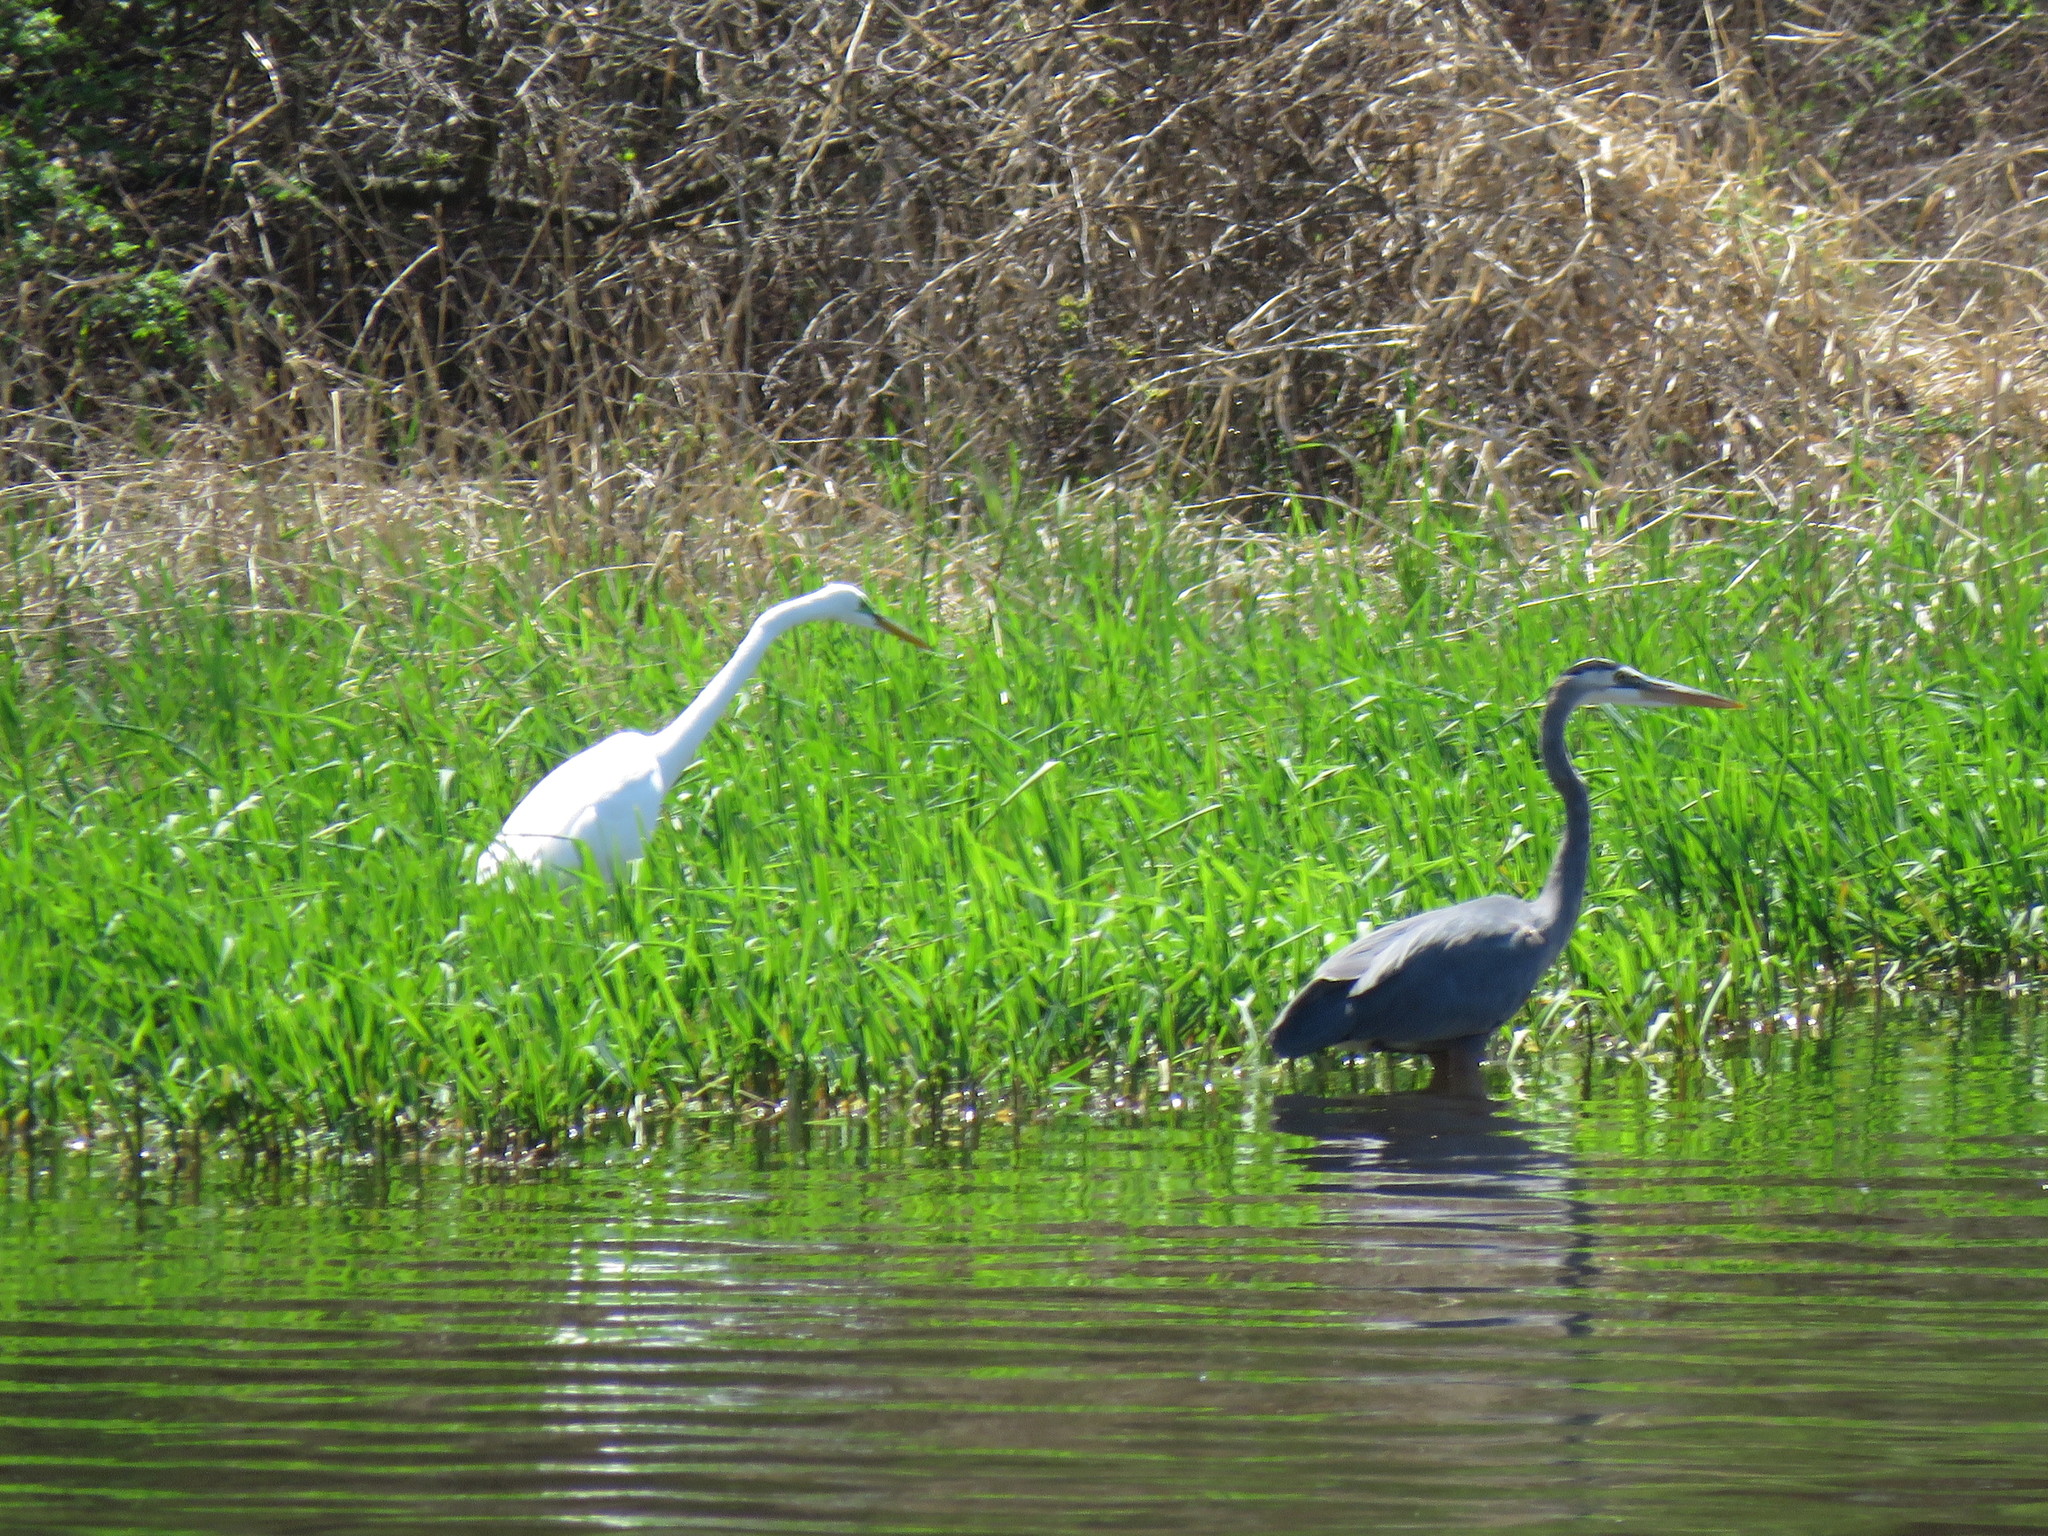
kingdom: Animalia
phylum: Chordata
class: Aves
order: Pelecaniformes
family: Ardeidae
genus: Ardea
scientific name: Ardea herodias
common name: Great blue heron
